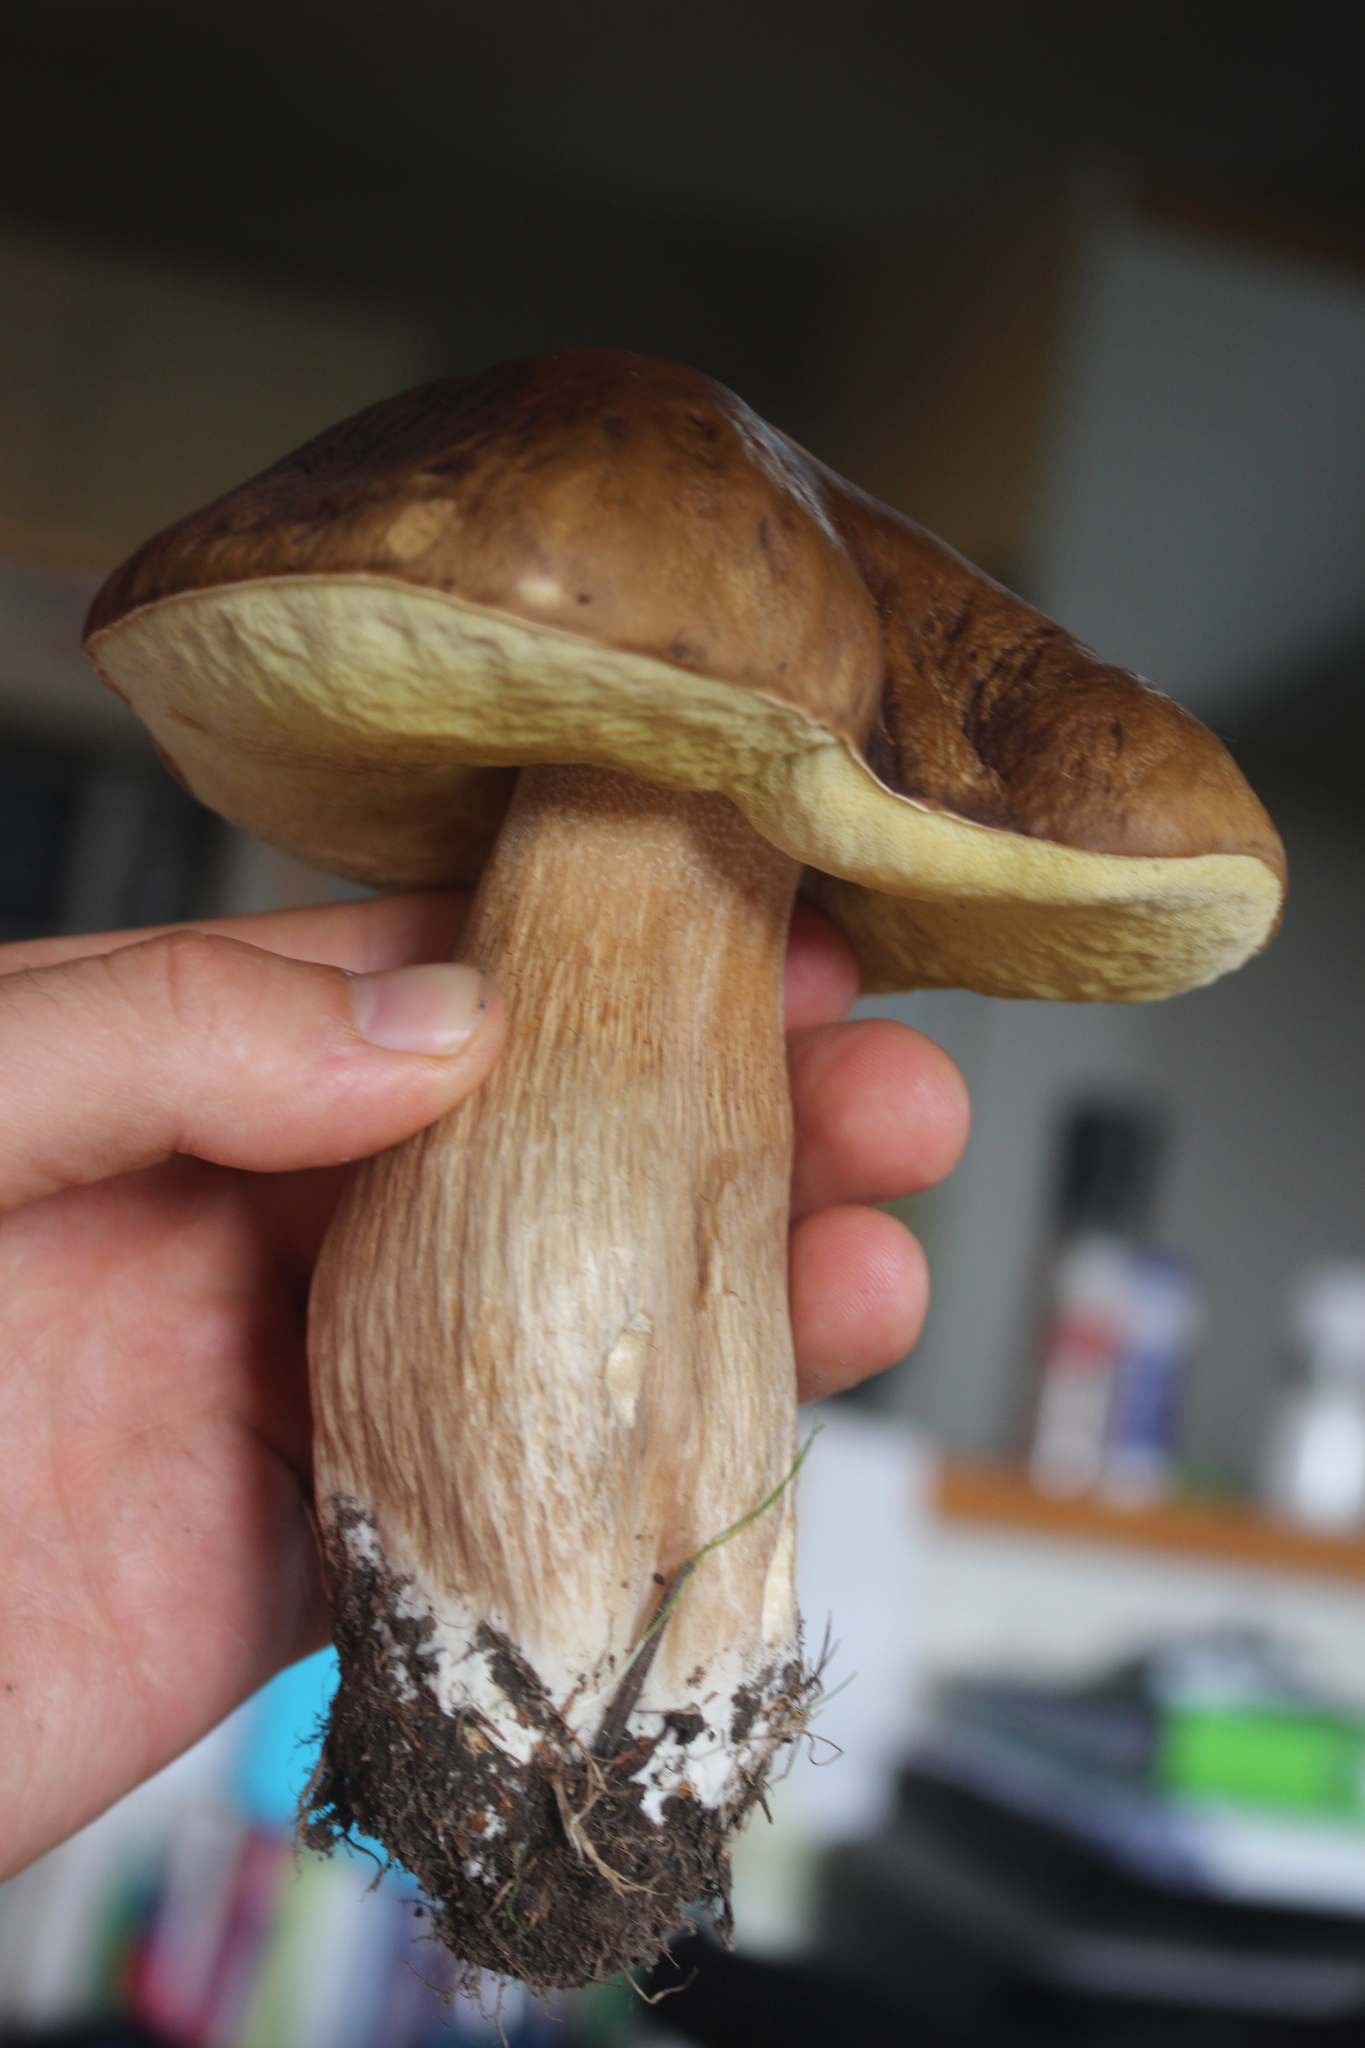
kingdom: Fungi
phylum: Basidiomycota
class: Agaricomycetes
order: Boletales
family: Boletaceae
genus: Boletus
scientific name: Boletus edulis
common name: Cep
